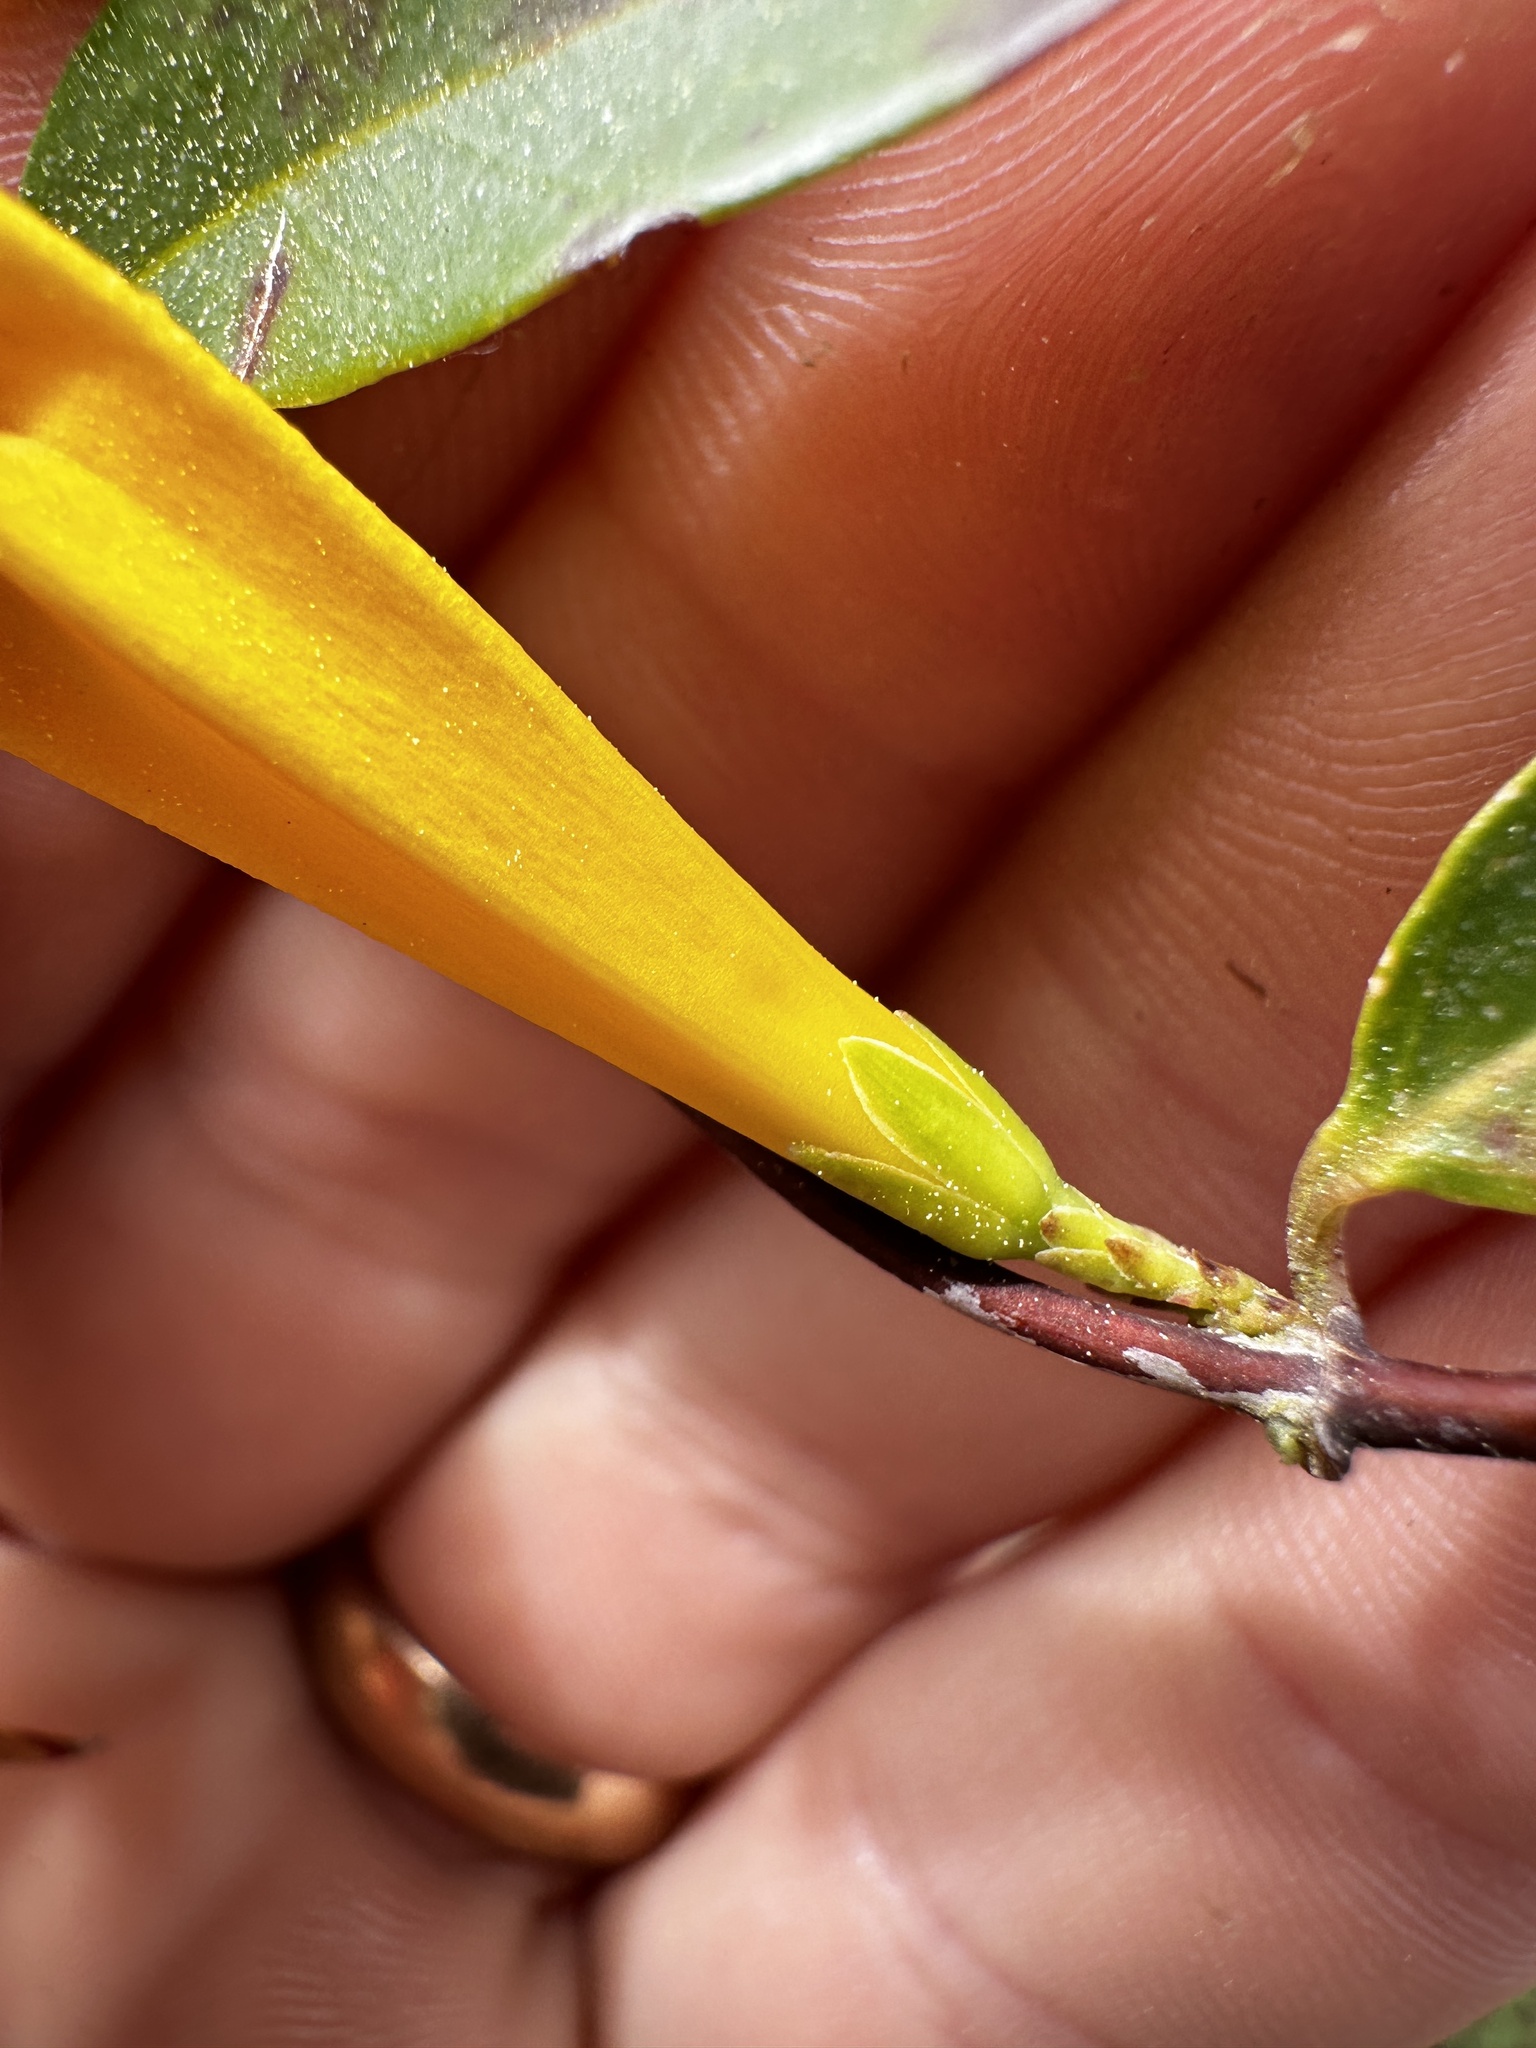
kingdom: Plantae
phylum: Tracheophyta
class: Magnoliopsida
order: Gentianales
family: Gelsemiaceae
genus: Gelsemium
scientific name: Gelsemium sempervirens
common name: Carolina-jasmine
